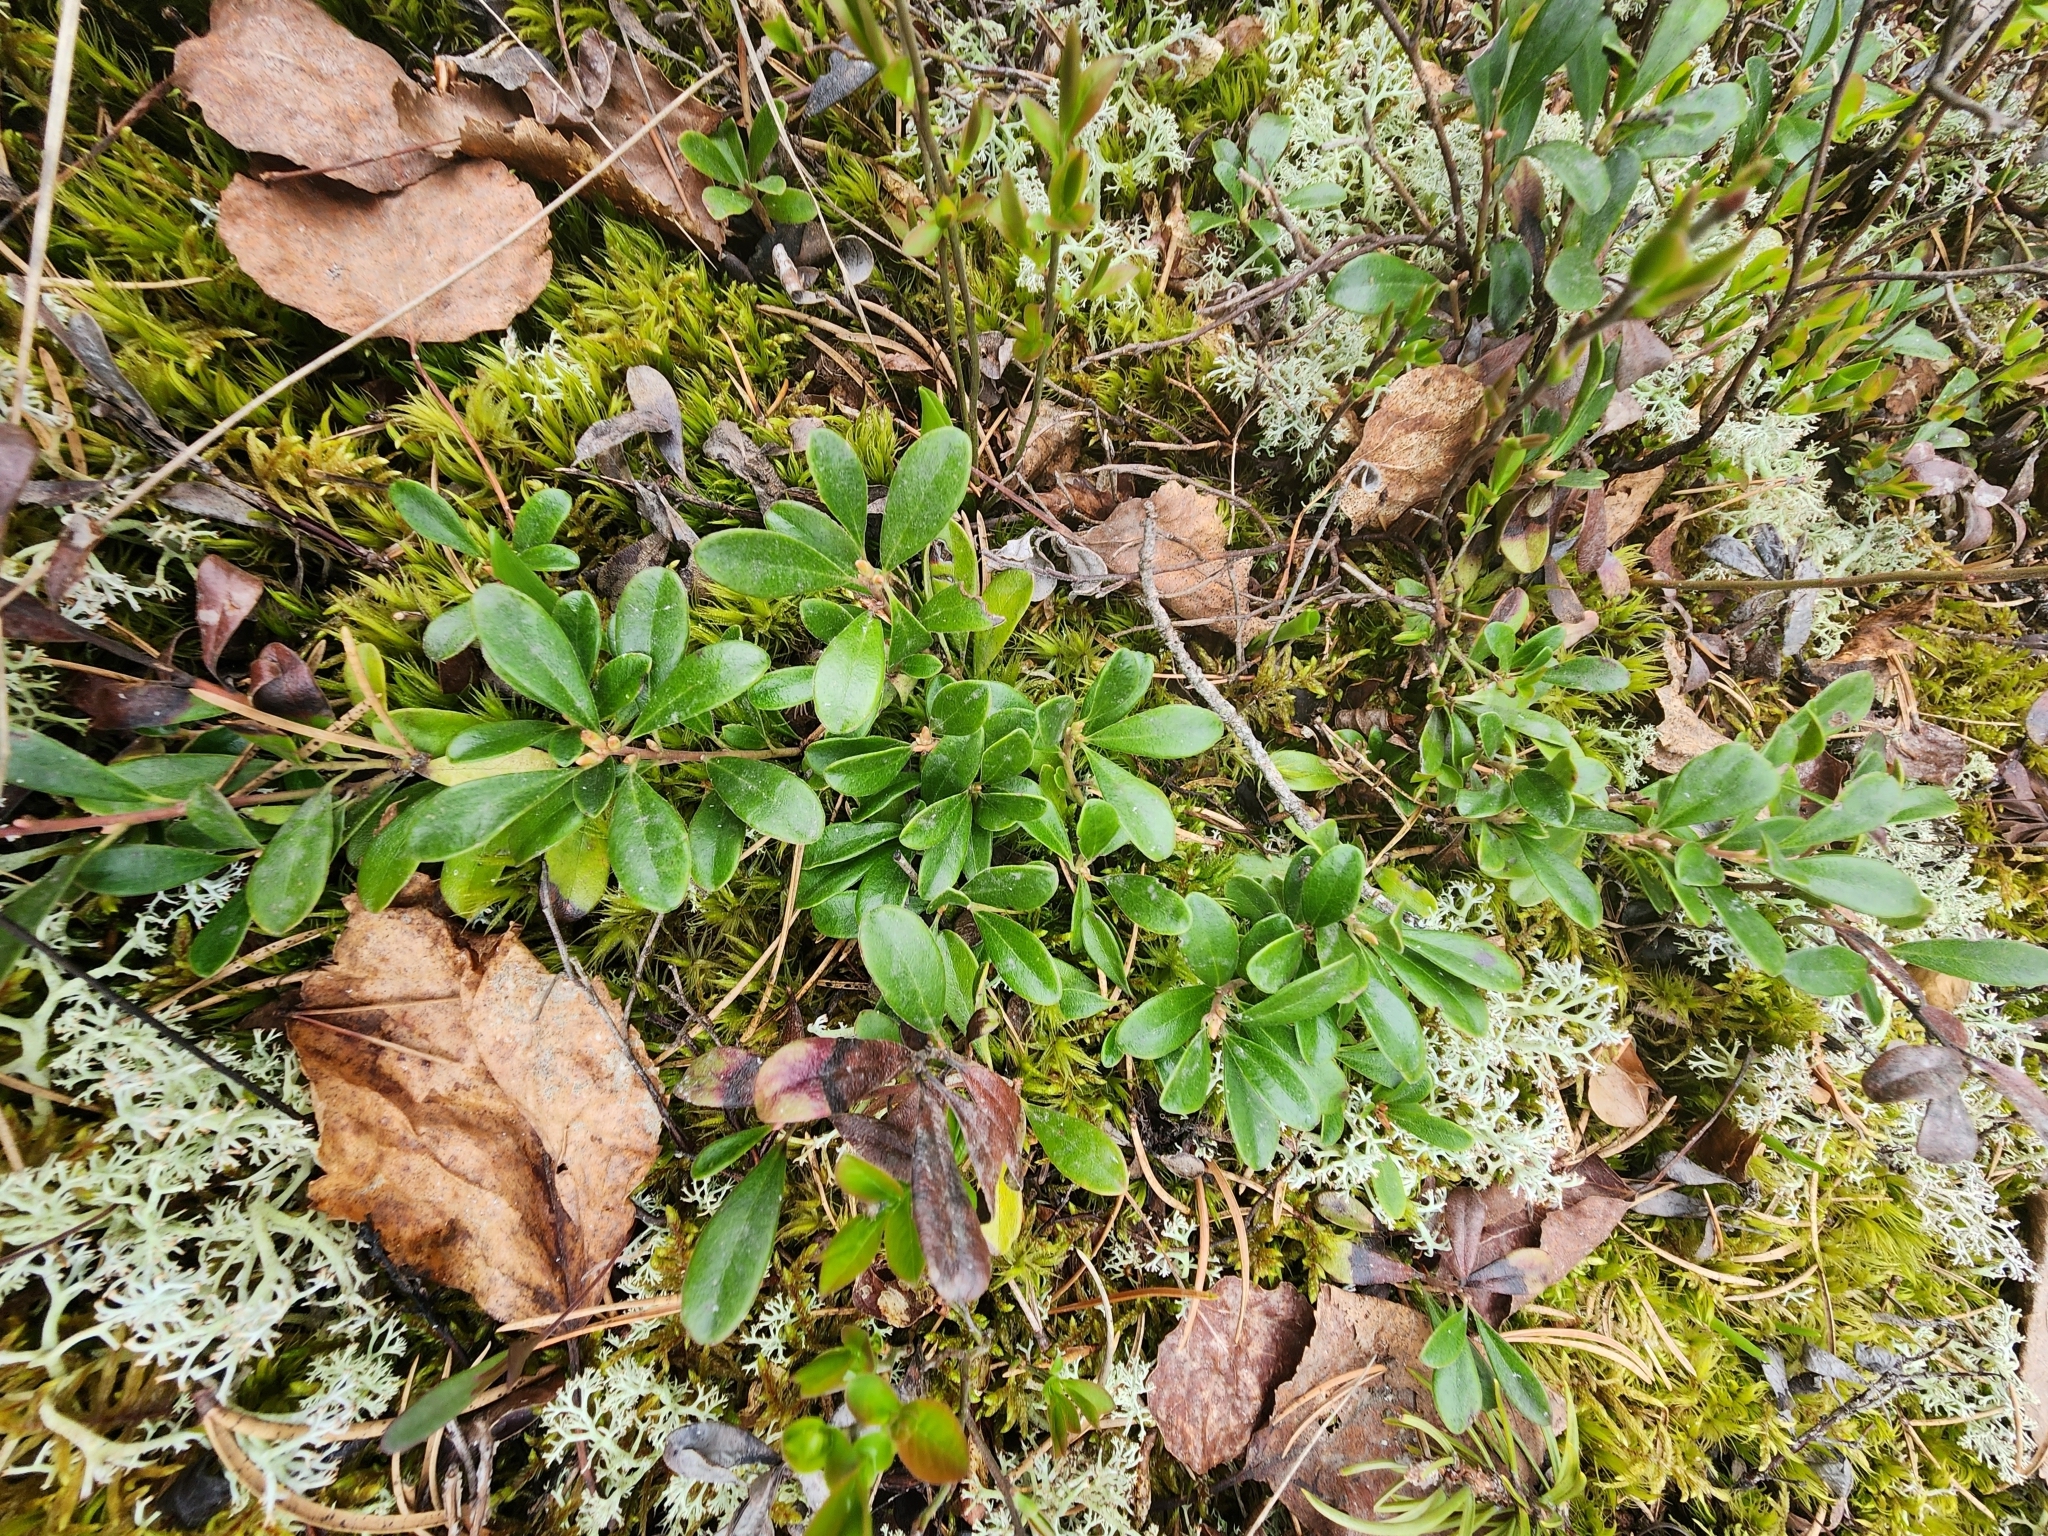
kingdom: Plantae
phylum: Tracheophyta
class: Magnoliopsida
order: Ericales
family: Ericaceae
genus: Arctostaphylos
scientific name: Arctostaphylos uva-ursi
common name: Bearberry
